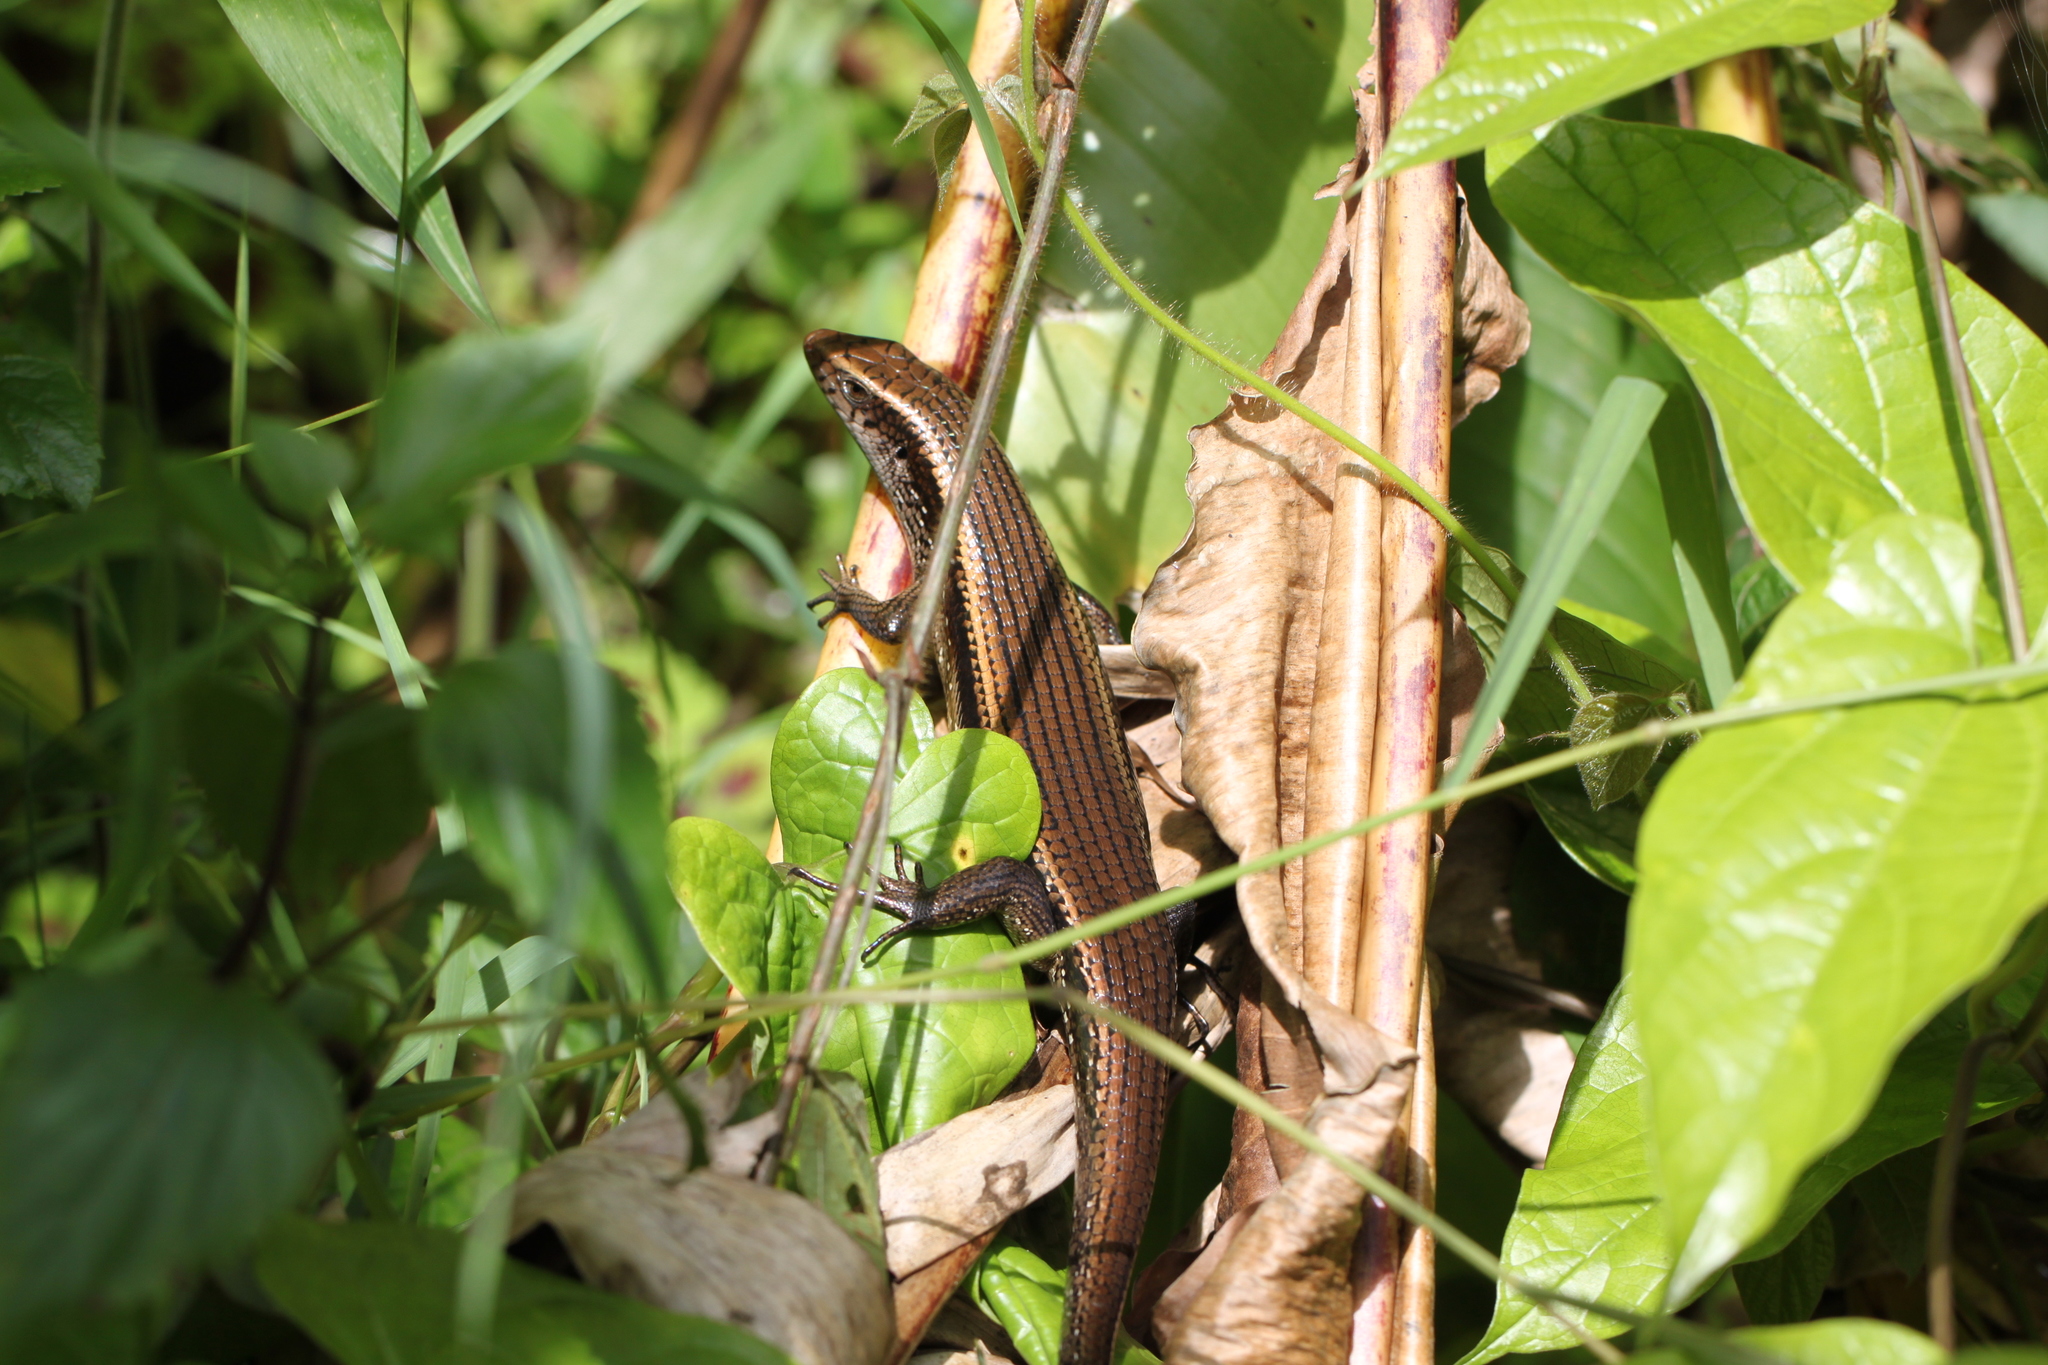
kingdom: Animalia
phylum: Chordata
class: Squamata
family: Scincidae
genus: Eutropis
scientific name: Eutropis multifasciata
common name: Common mabuya
